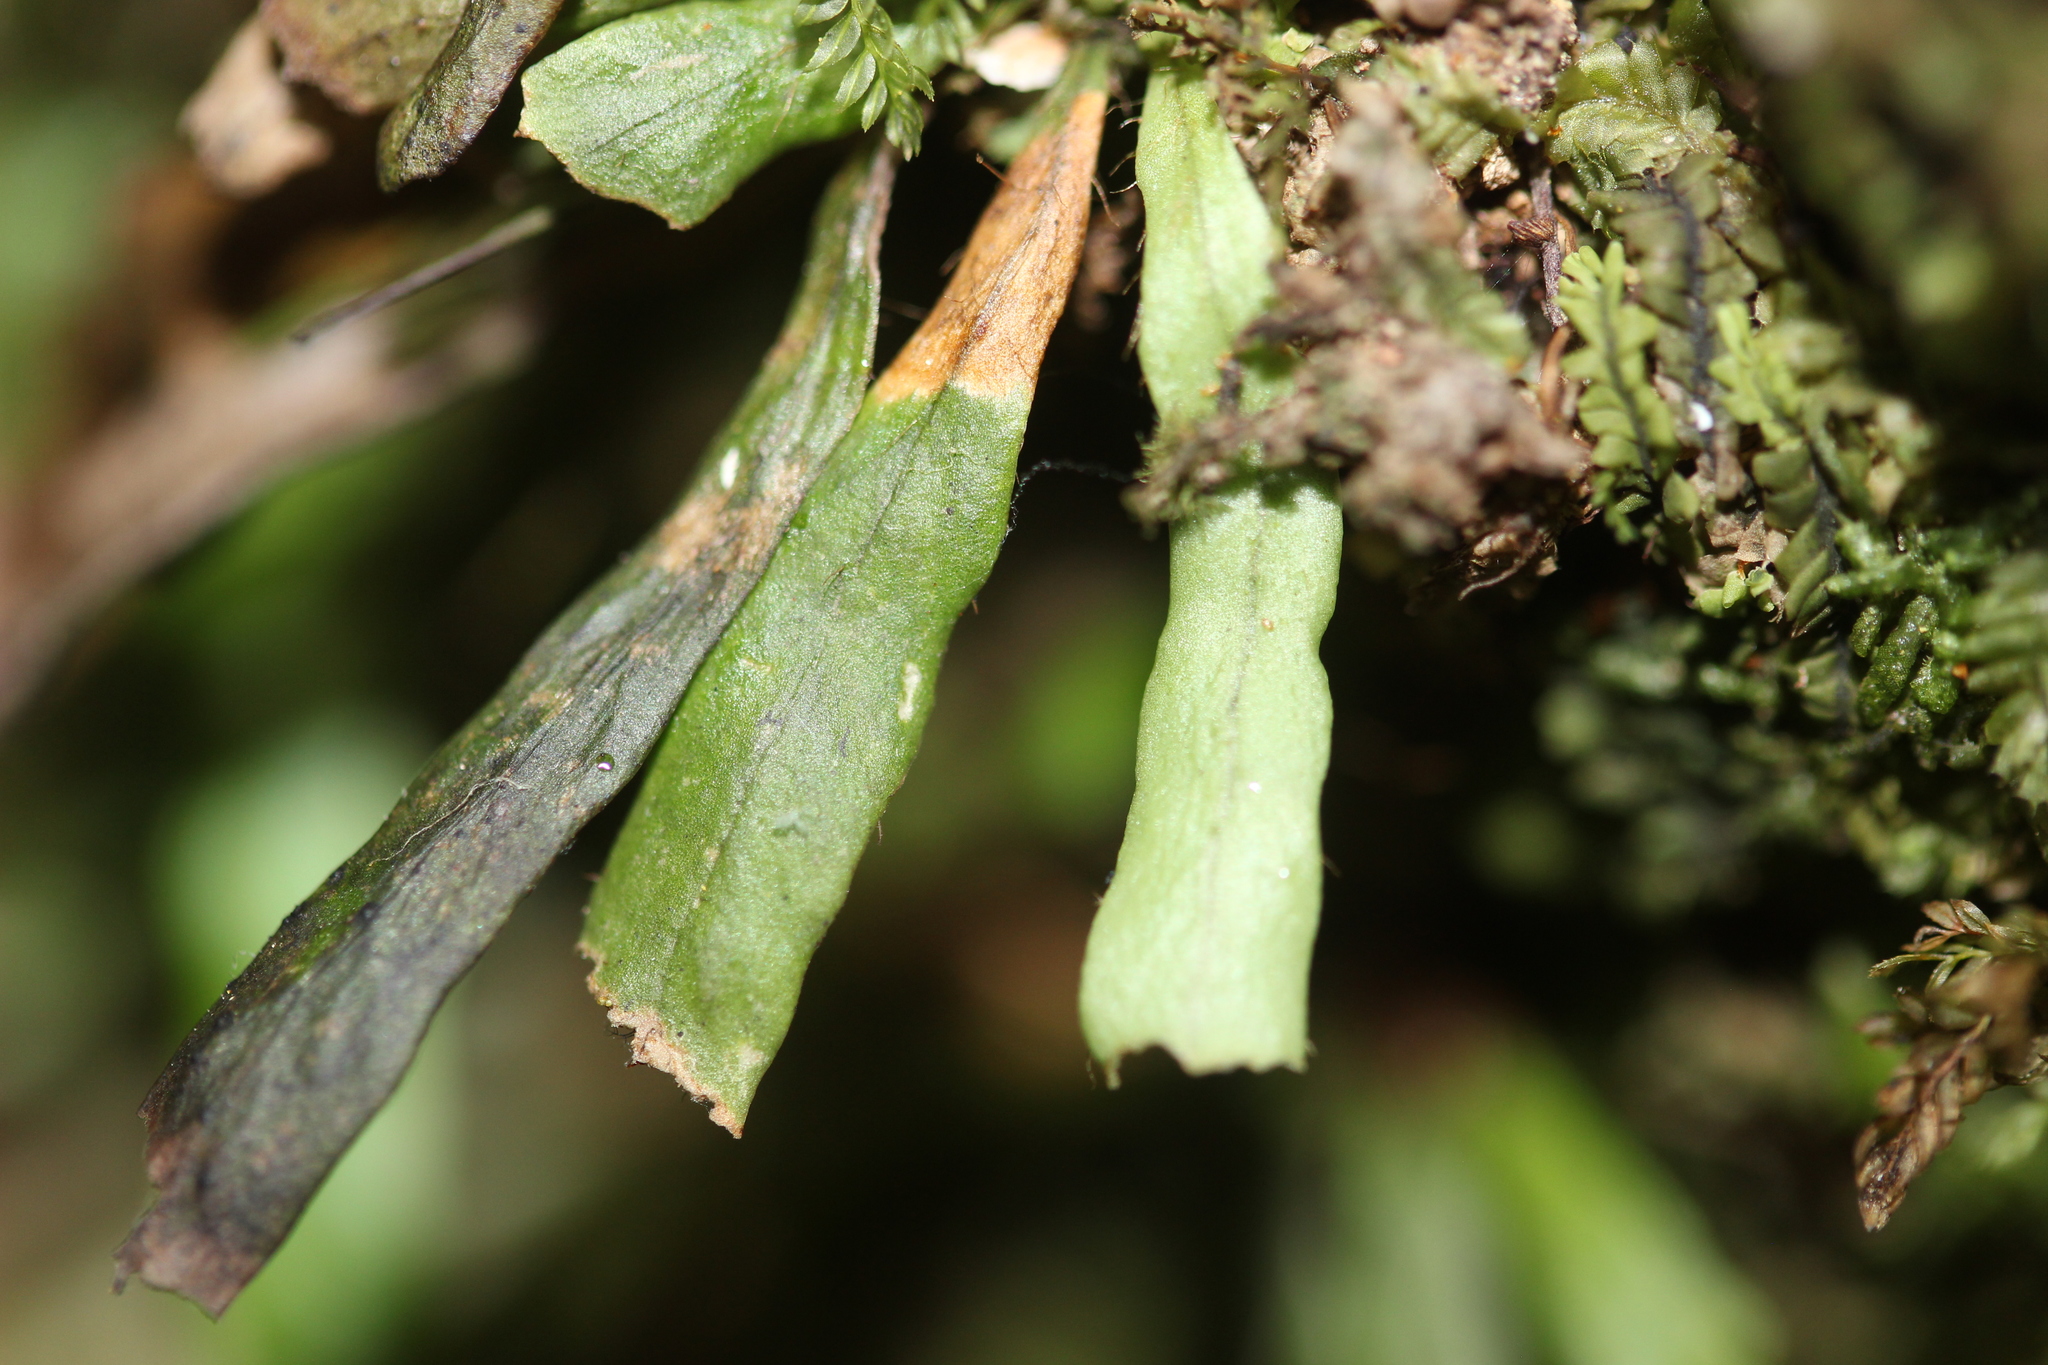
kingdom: Plantae
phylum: Tracheophyta
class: Polypodiopsida
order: Polypodiales
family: Polypodiaceae
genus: Notogrammitis
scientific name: Notogrammitis billardierei
